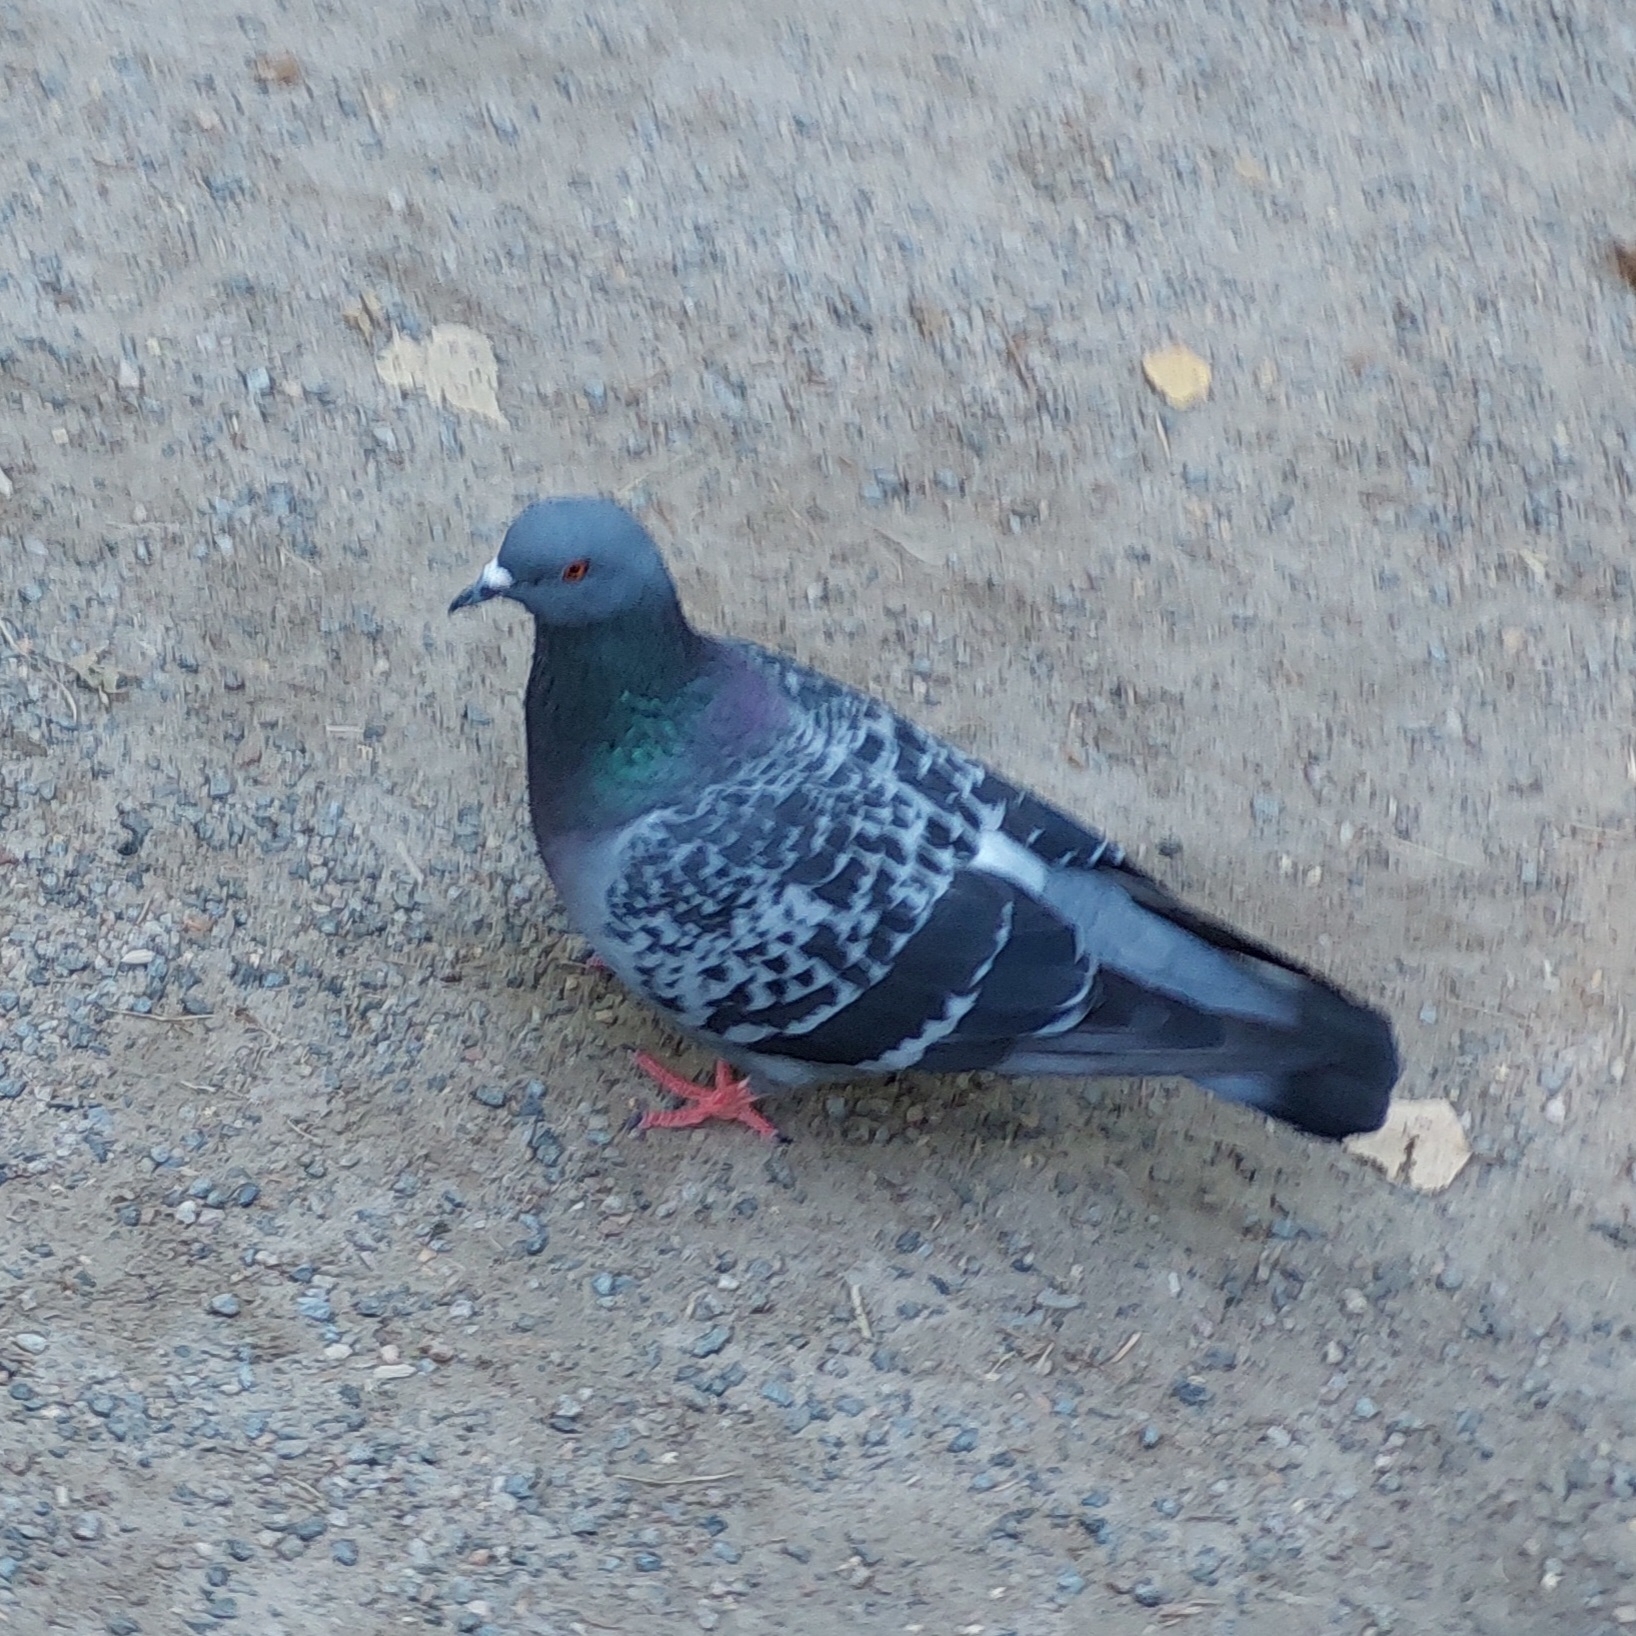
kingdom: Animalia
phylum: Chordata
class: Aves
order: Columbiformes
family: Columbidae
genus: Columba
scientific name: Columba livia
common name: Rock pigeon
